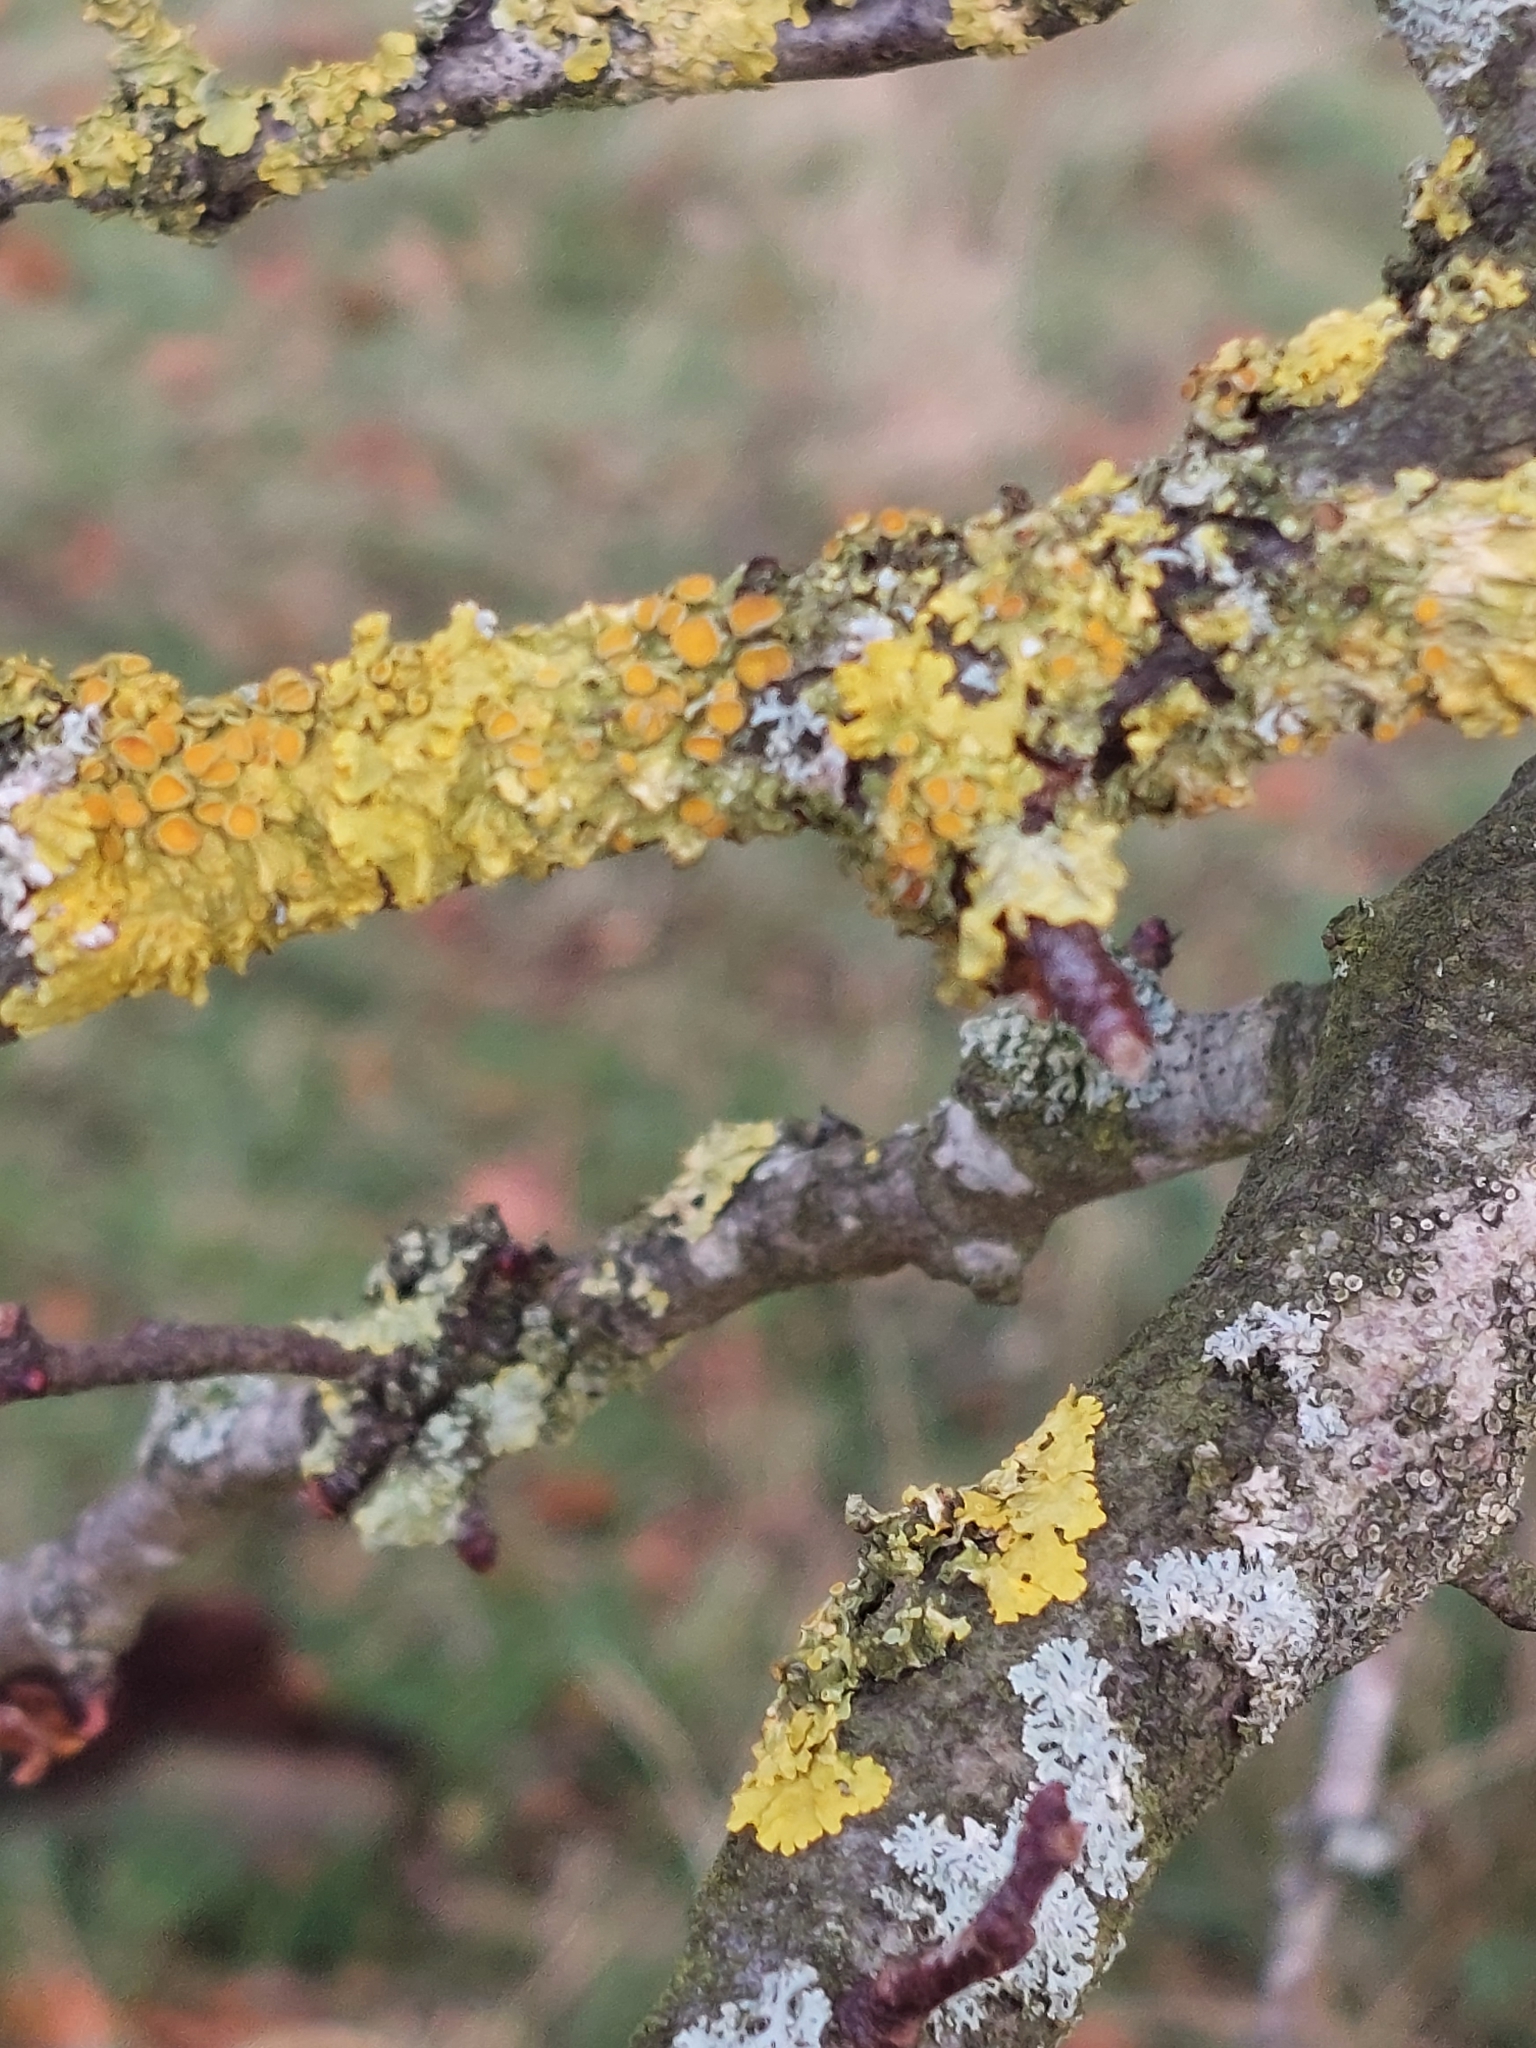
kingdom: Fungi
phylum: Ascomycota
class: Lecanoromycetes
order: Teloschistales
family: Teloschistaceae
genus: Xanthoria
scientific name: Xanthoria parietina
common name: Common orange lichen
